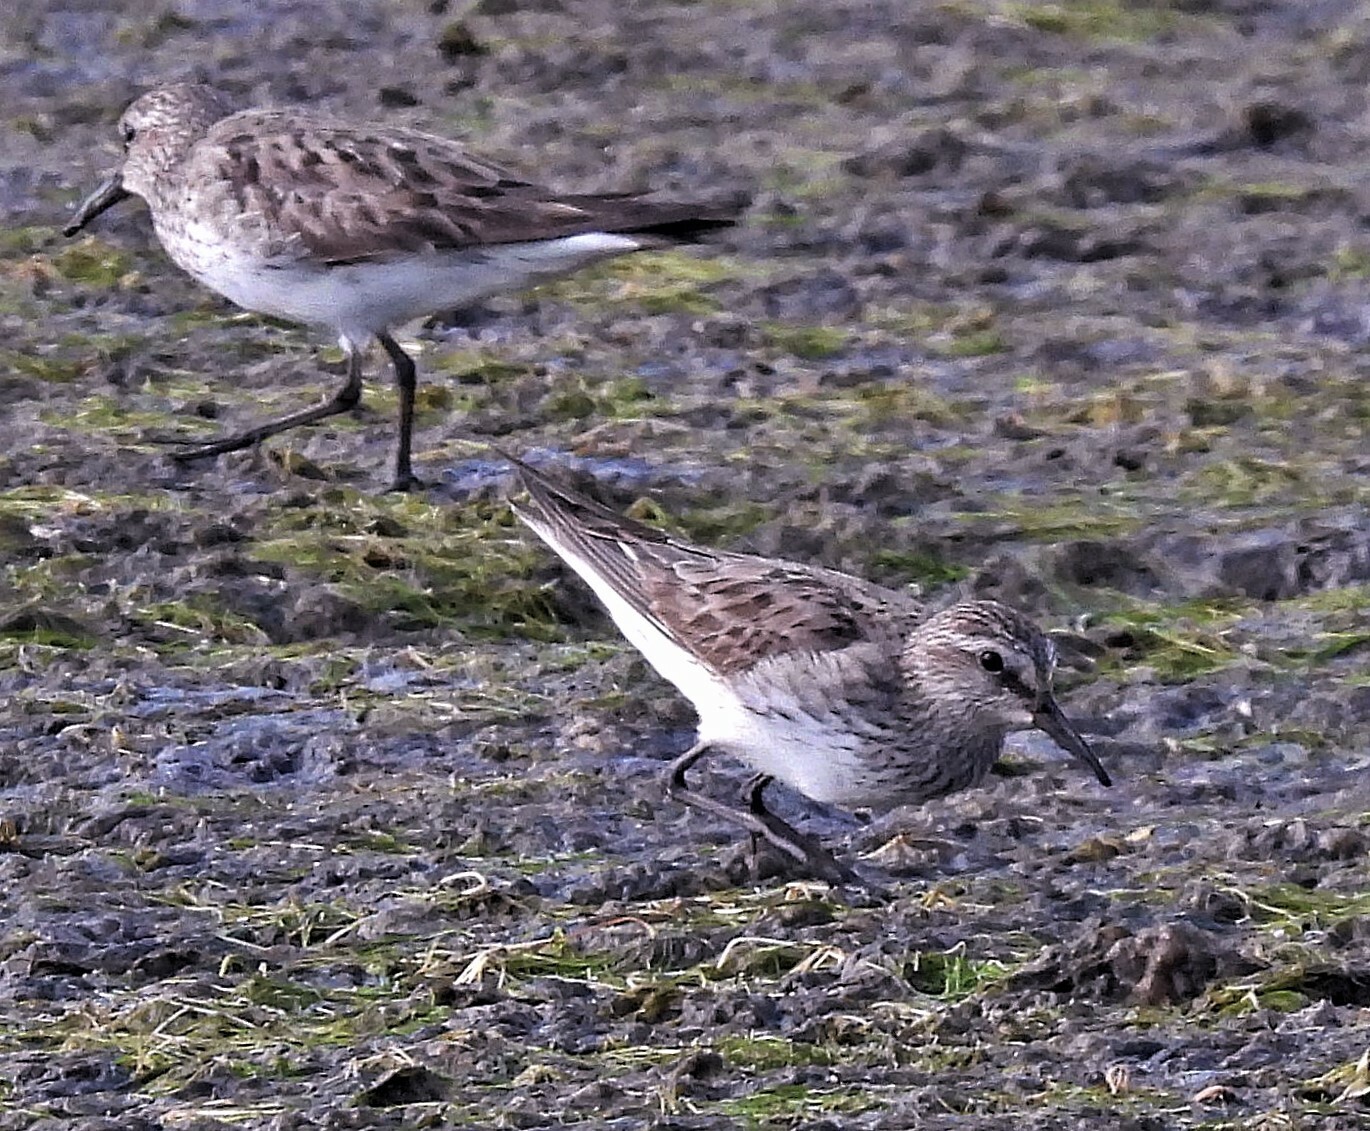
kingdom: Animalia
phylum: Chordata
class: Aves
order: Charadriiformes
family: Scolopacidae
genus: Calidris
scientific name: Calidris fuscicollis
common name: White-rumped sandpiper
